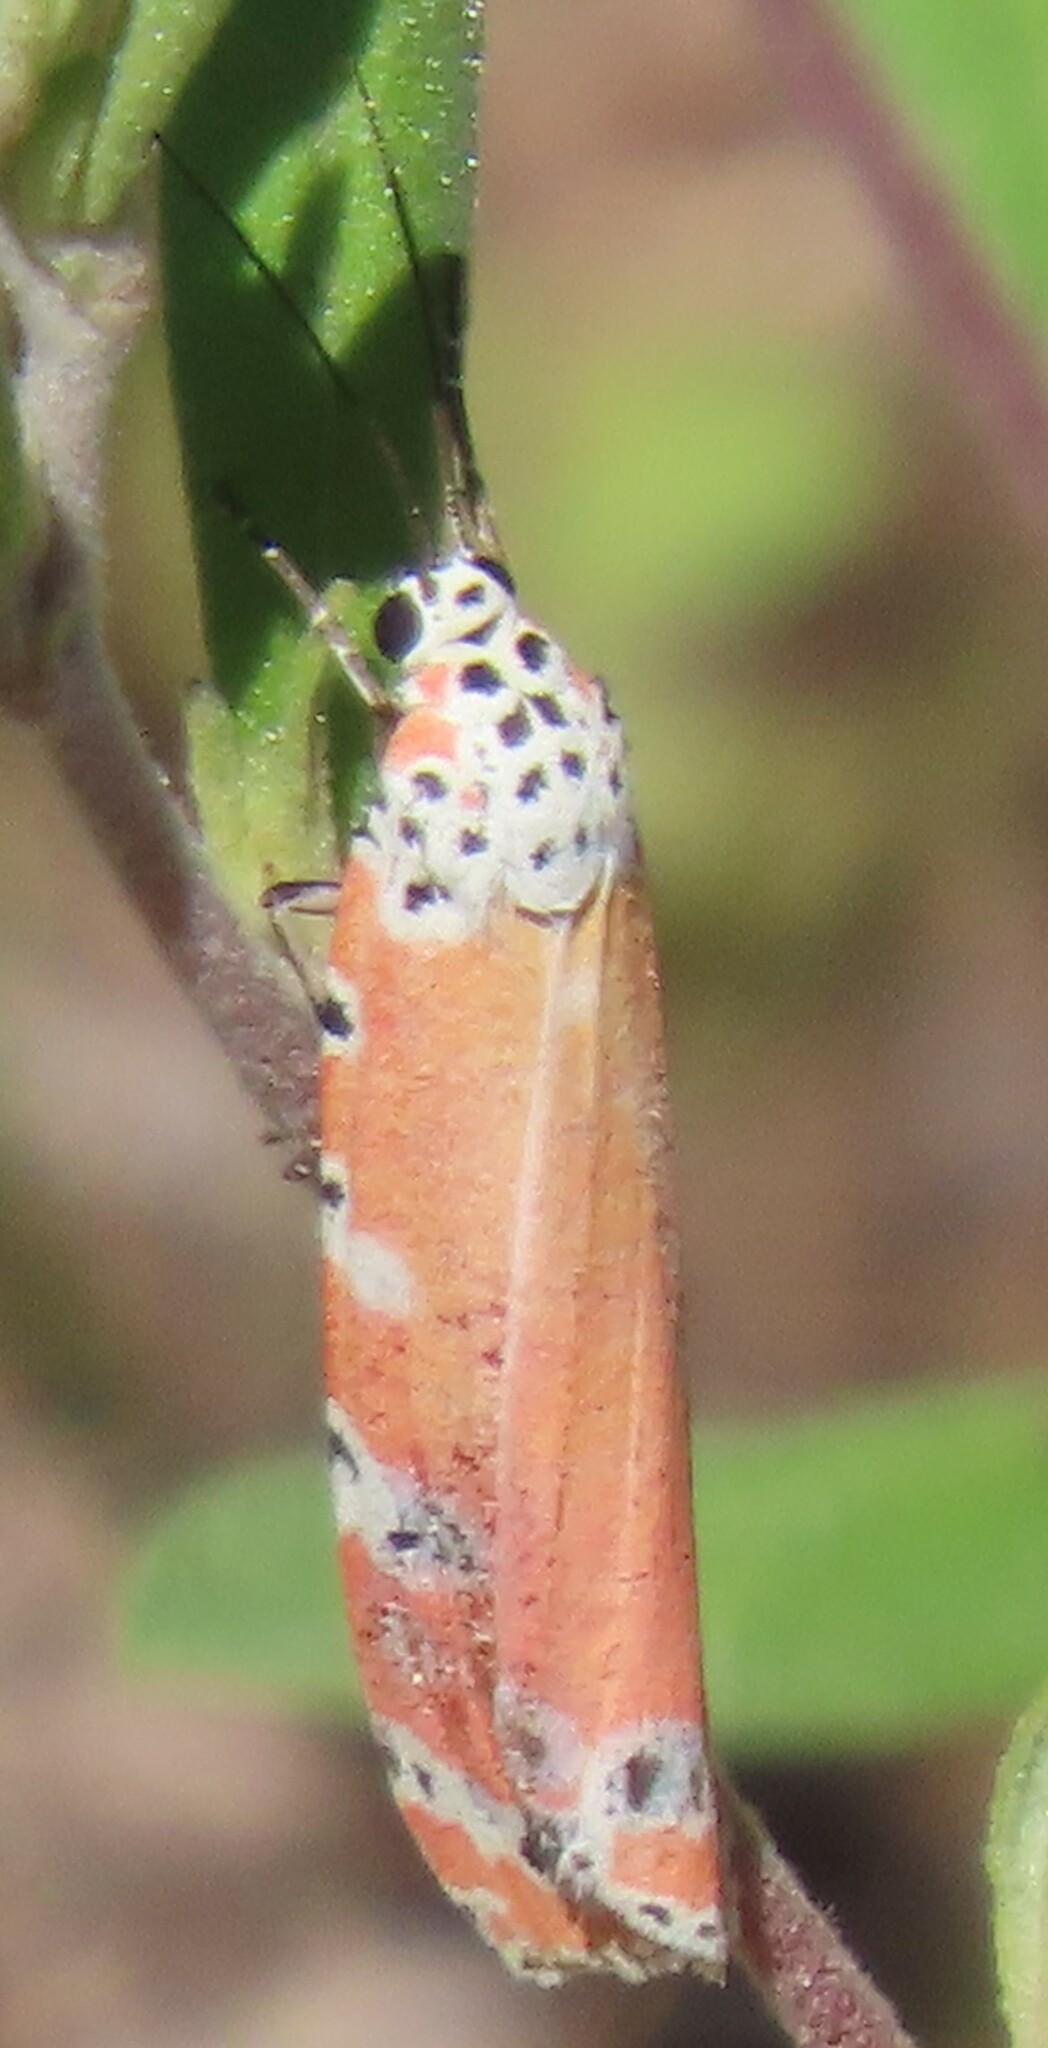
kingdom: Animalia
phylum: Arthropoda
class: Insecta
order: Lepidoptera
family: Erebidae
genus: Utetheisa
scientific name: Utetheisa ornatrix
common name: Beautiful utetheisa
